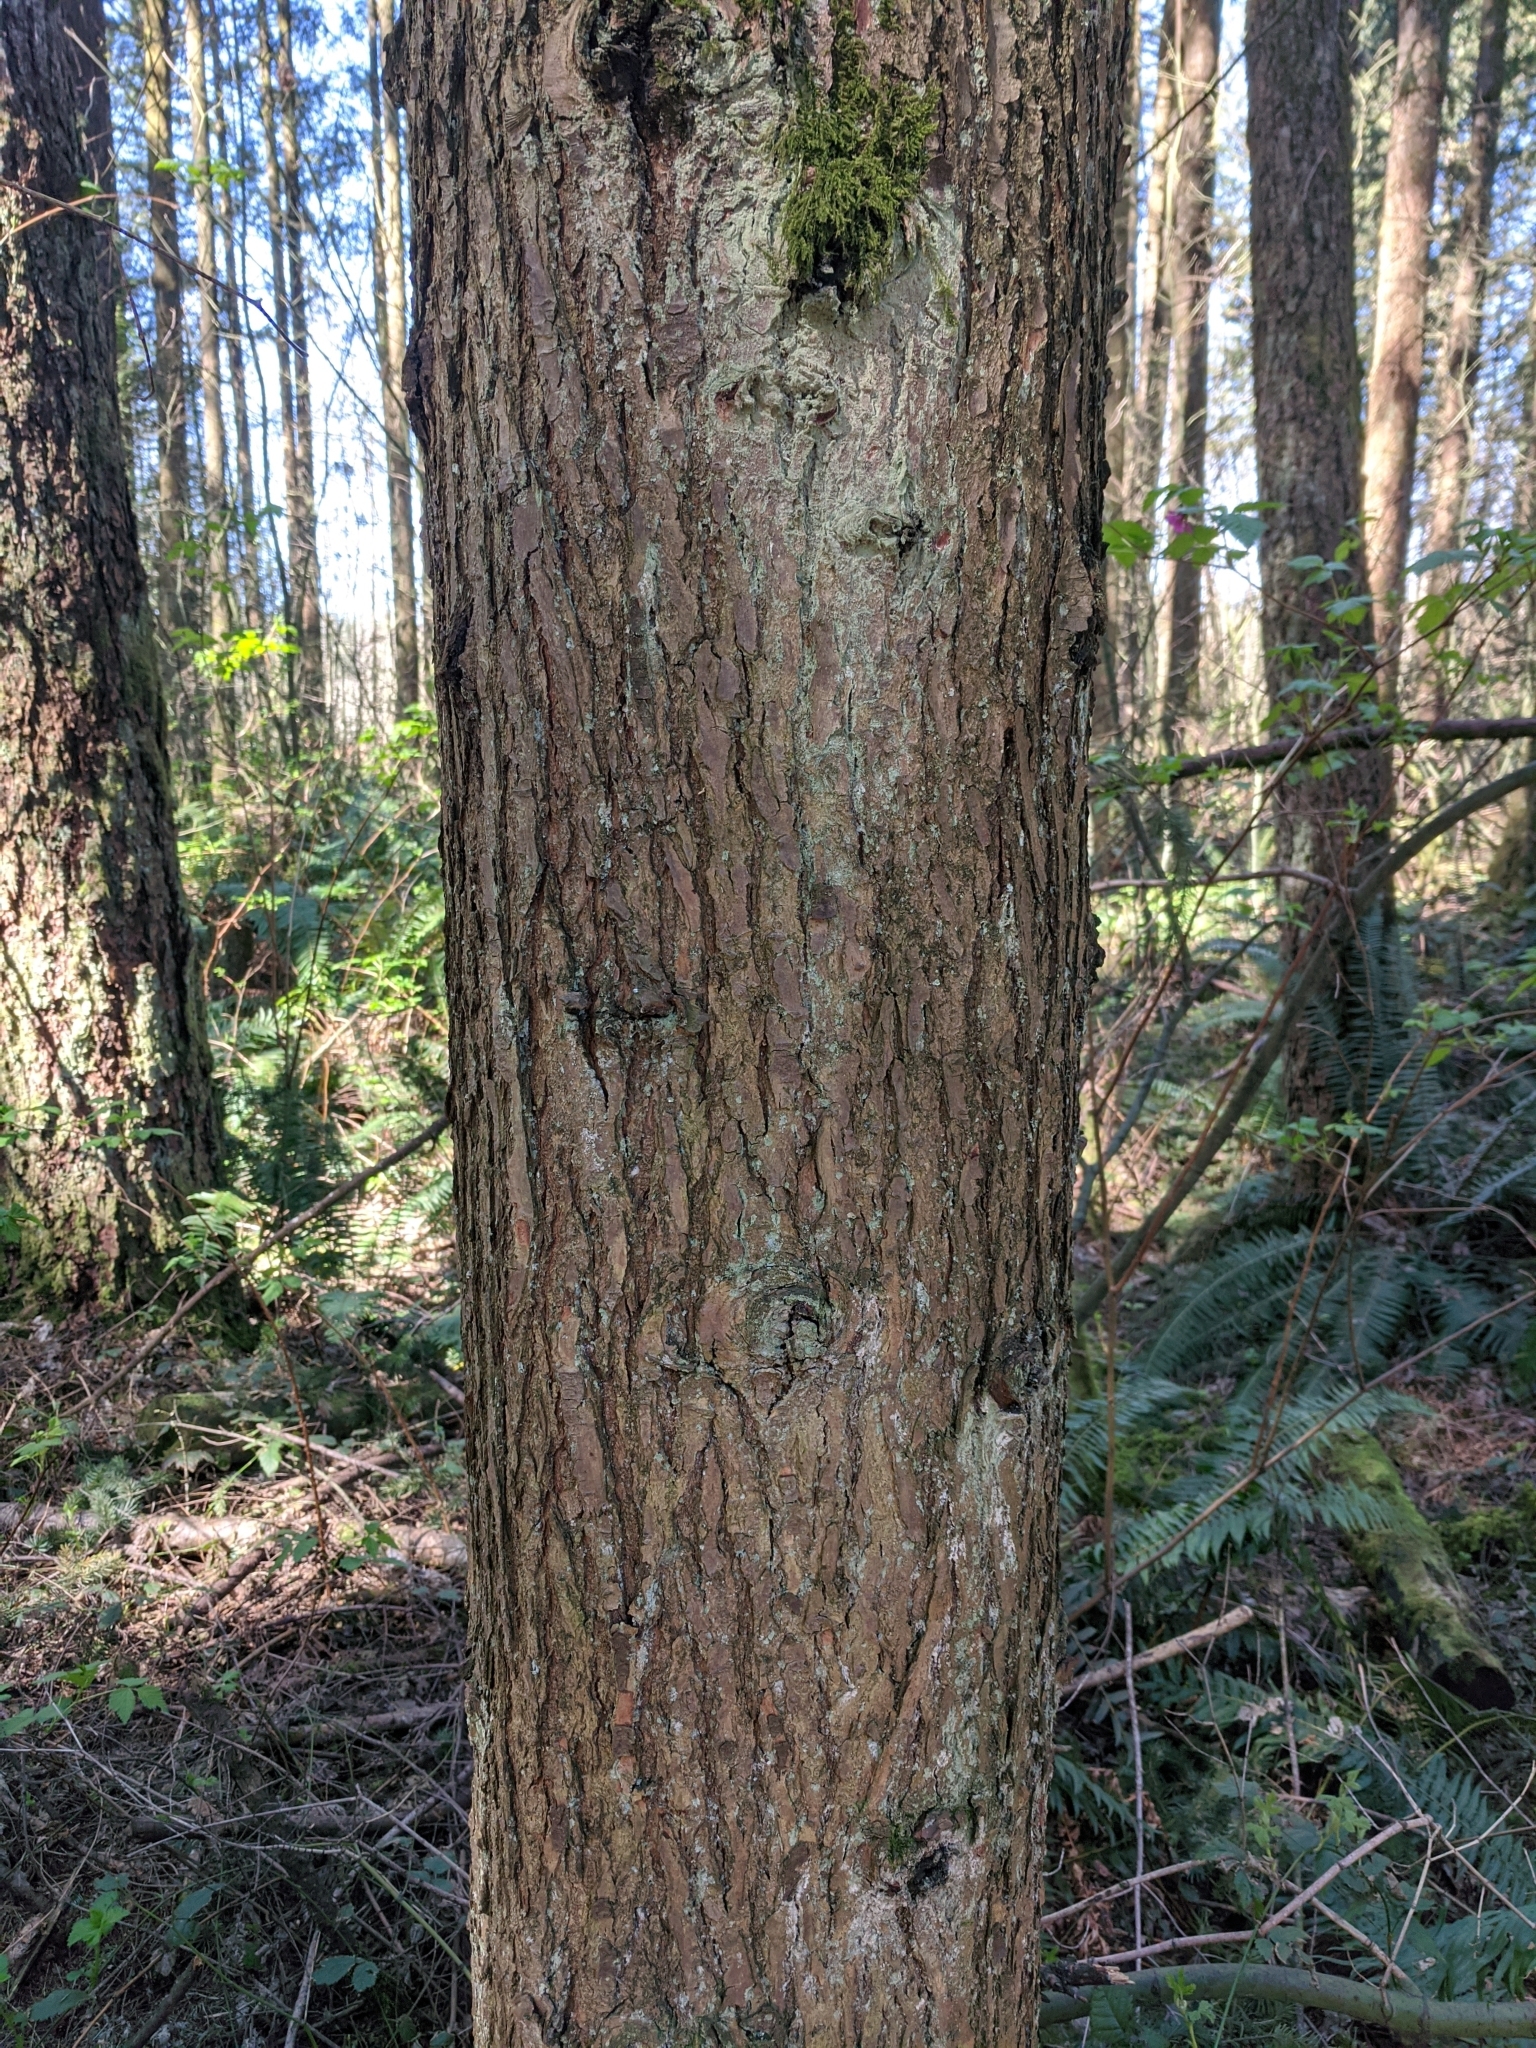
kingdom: Plantae
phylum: Tracheophyta
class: Pinopsida
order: Pinales
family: Pinaceae
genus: Tsuga
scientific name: Tsuga heterophylla
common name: Western hemlock
